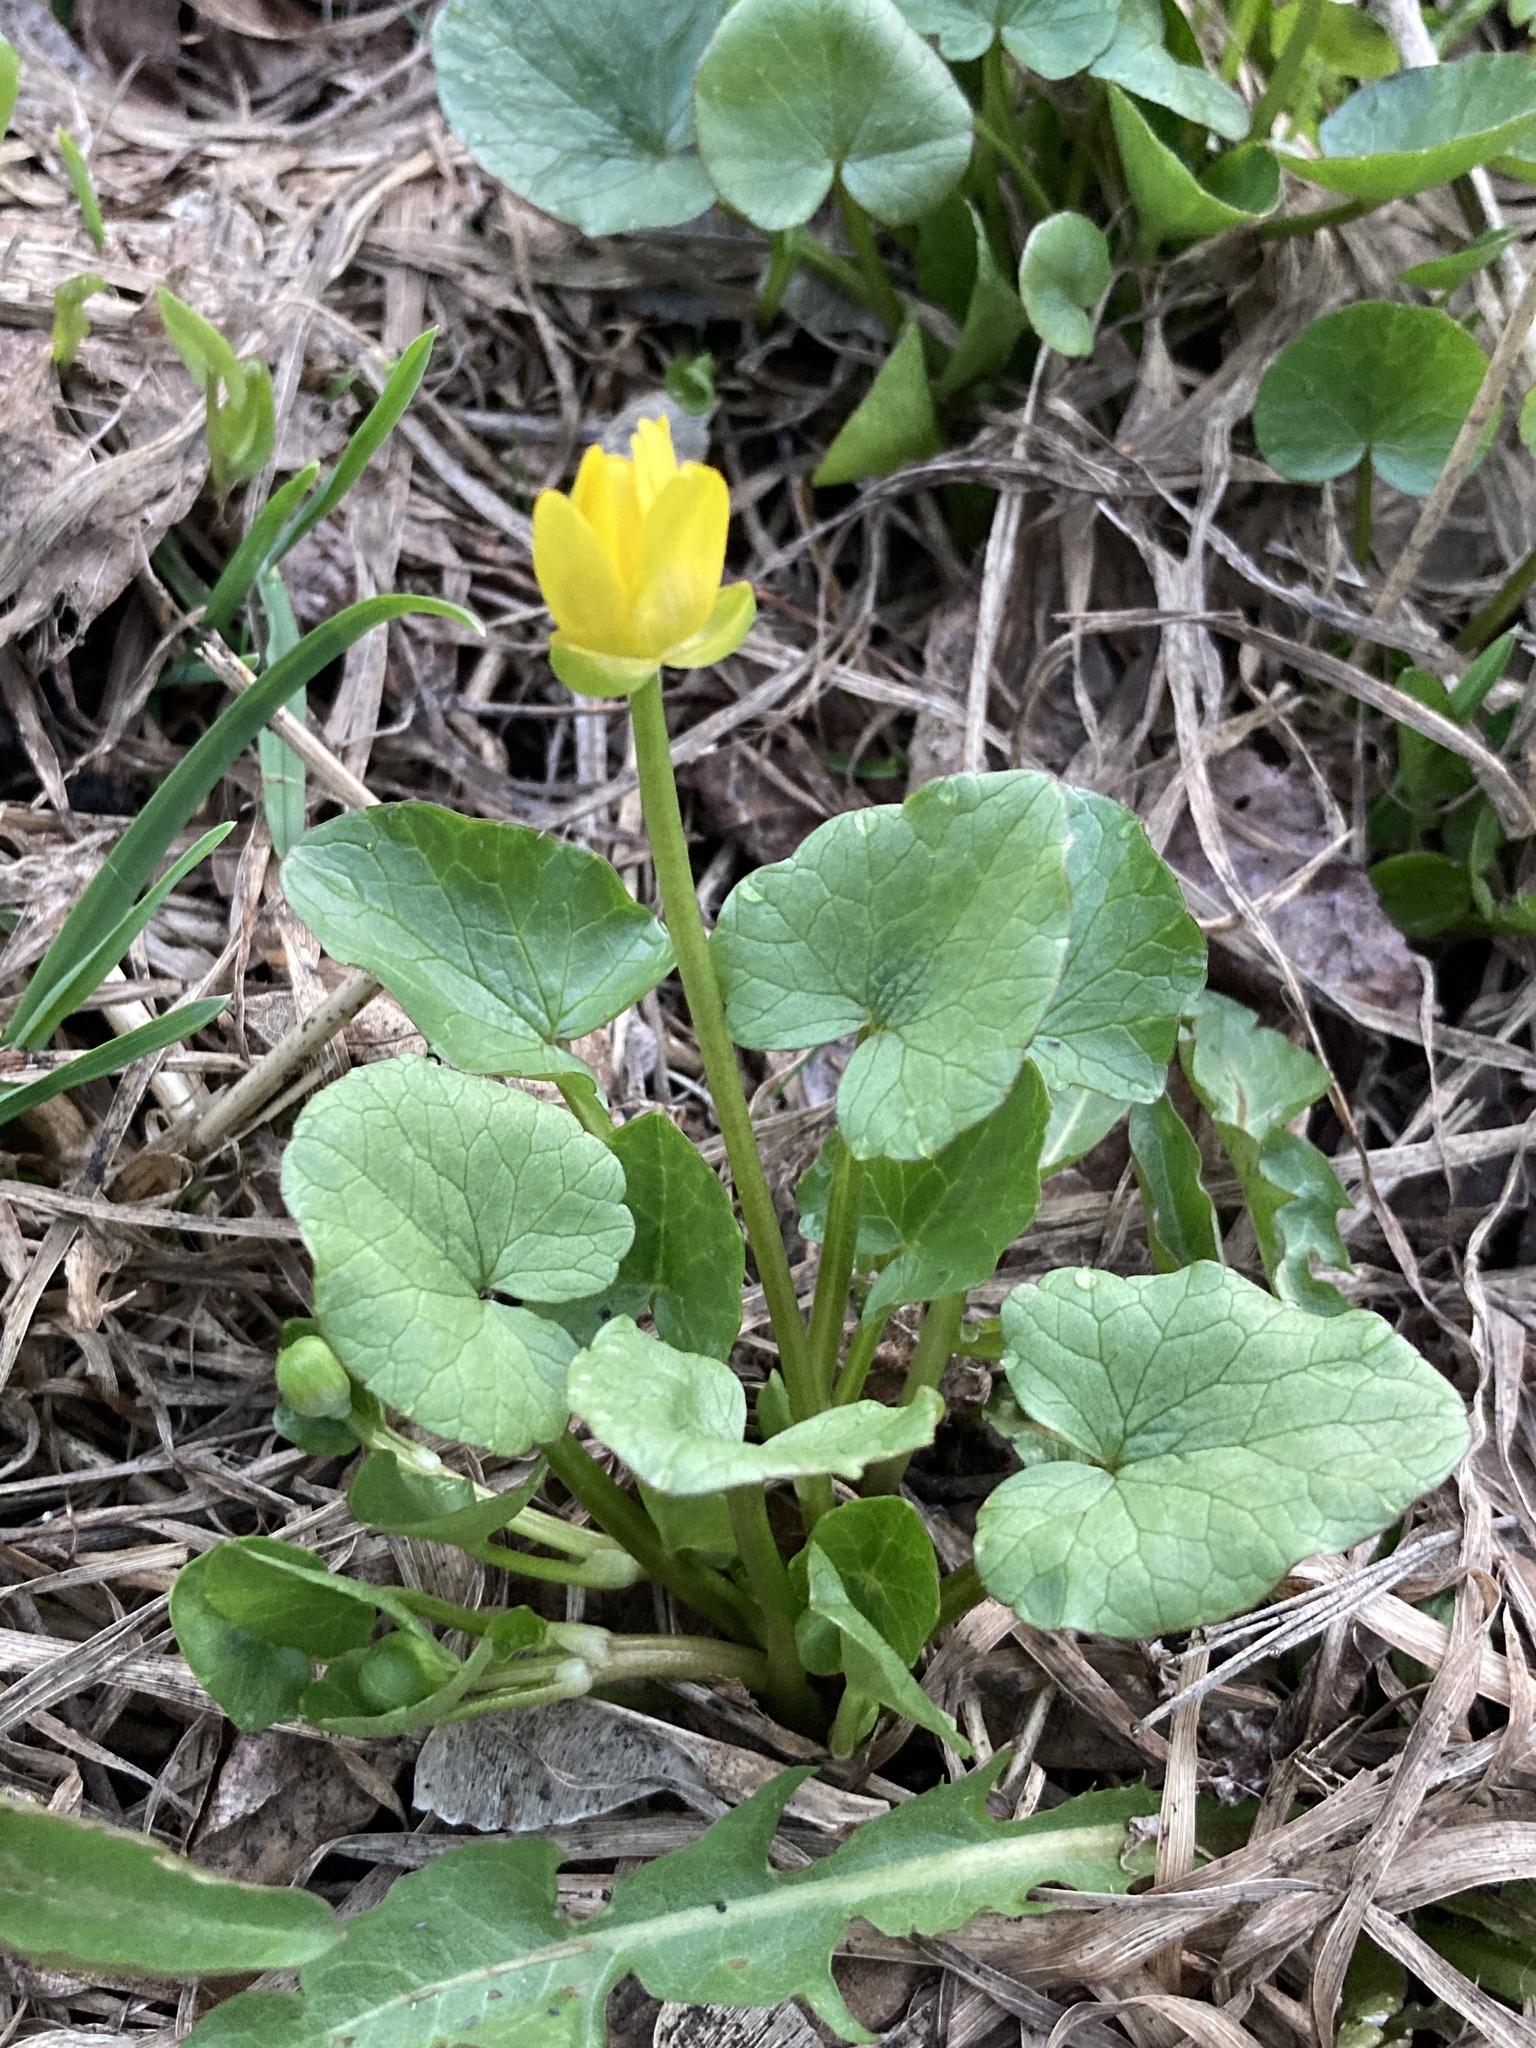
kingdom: Plantae
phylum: Tracheophyta
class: Magnoliopsida
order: Ranunculales
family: Ranunculaceae
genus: Ficaria
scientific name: Ficaria verna
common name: Lesser celandine
